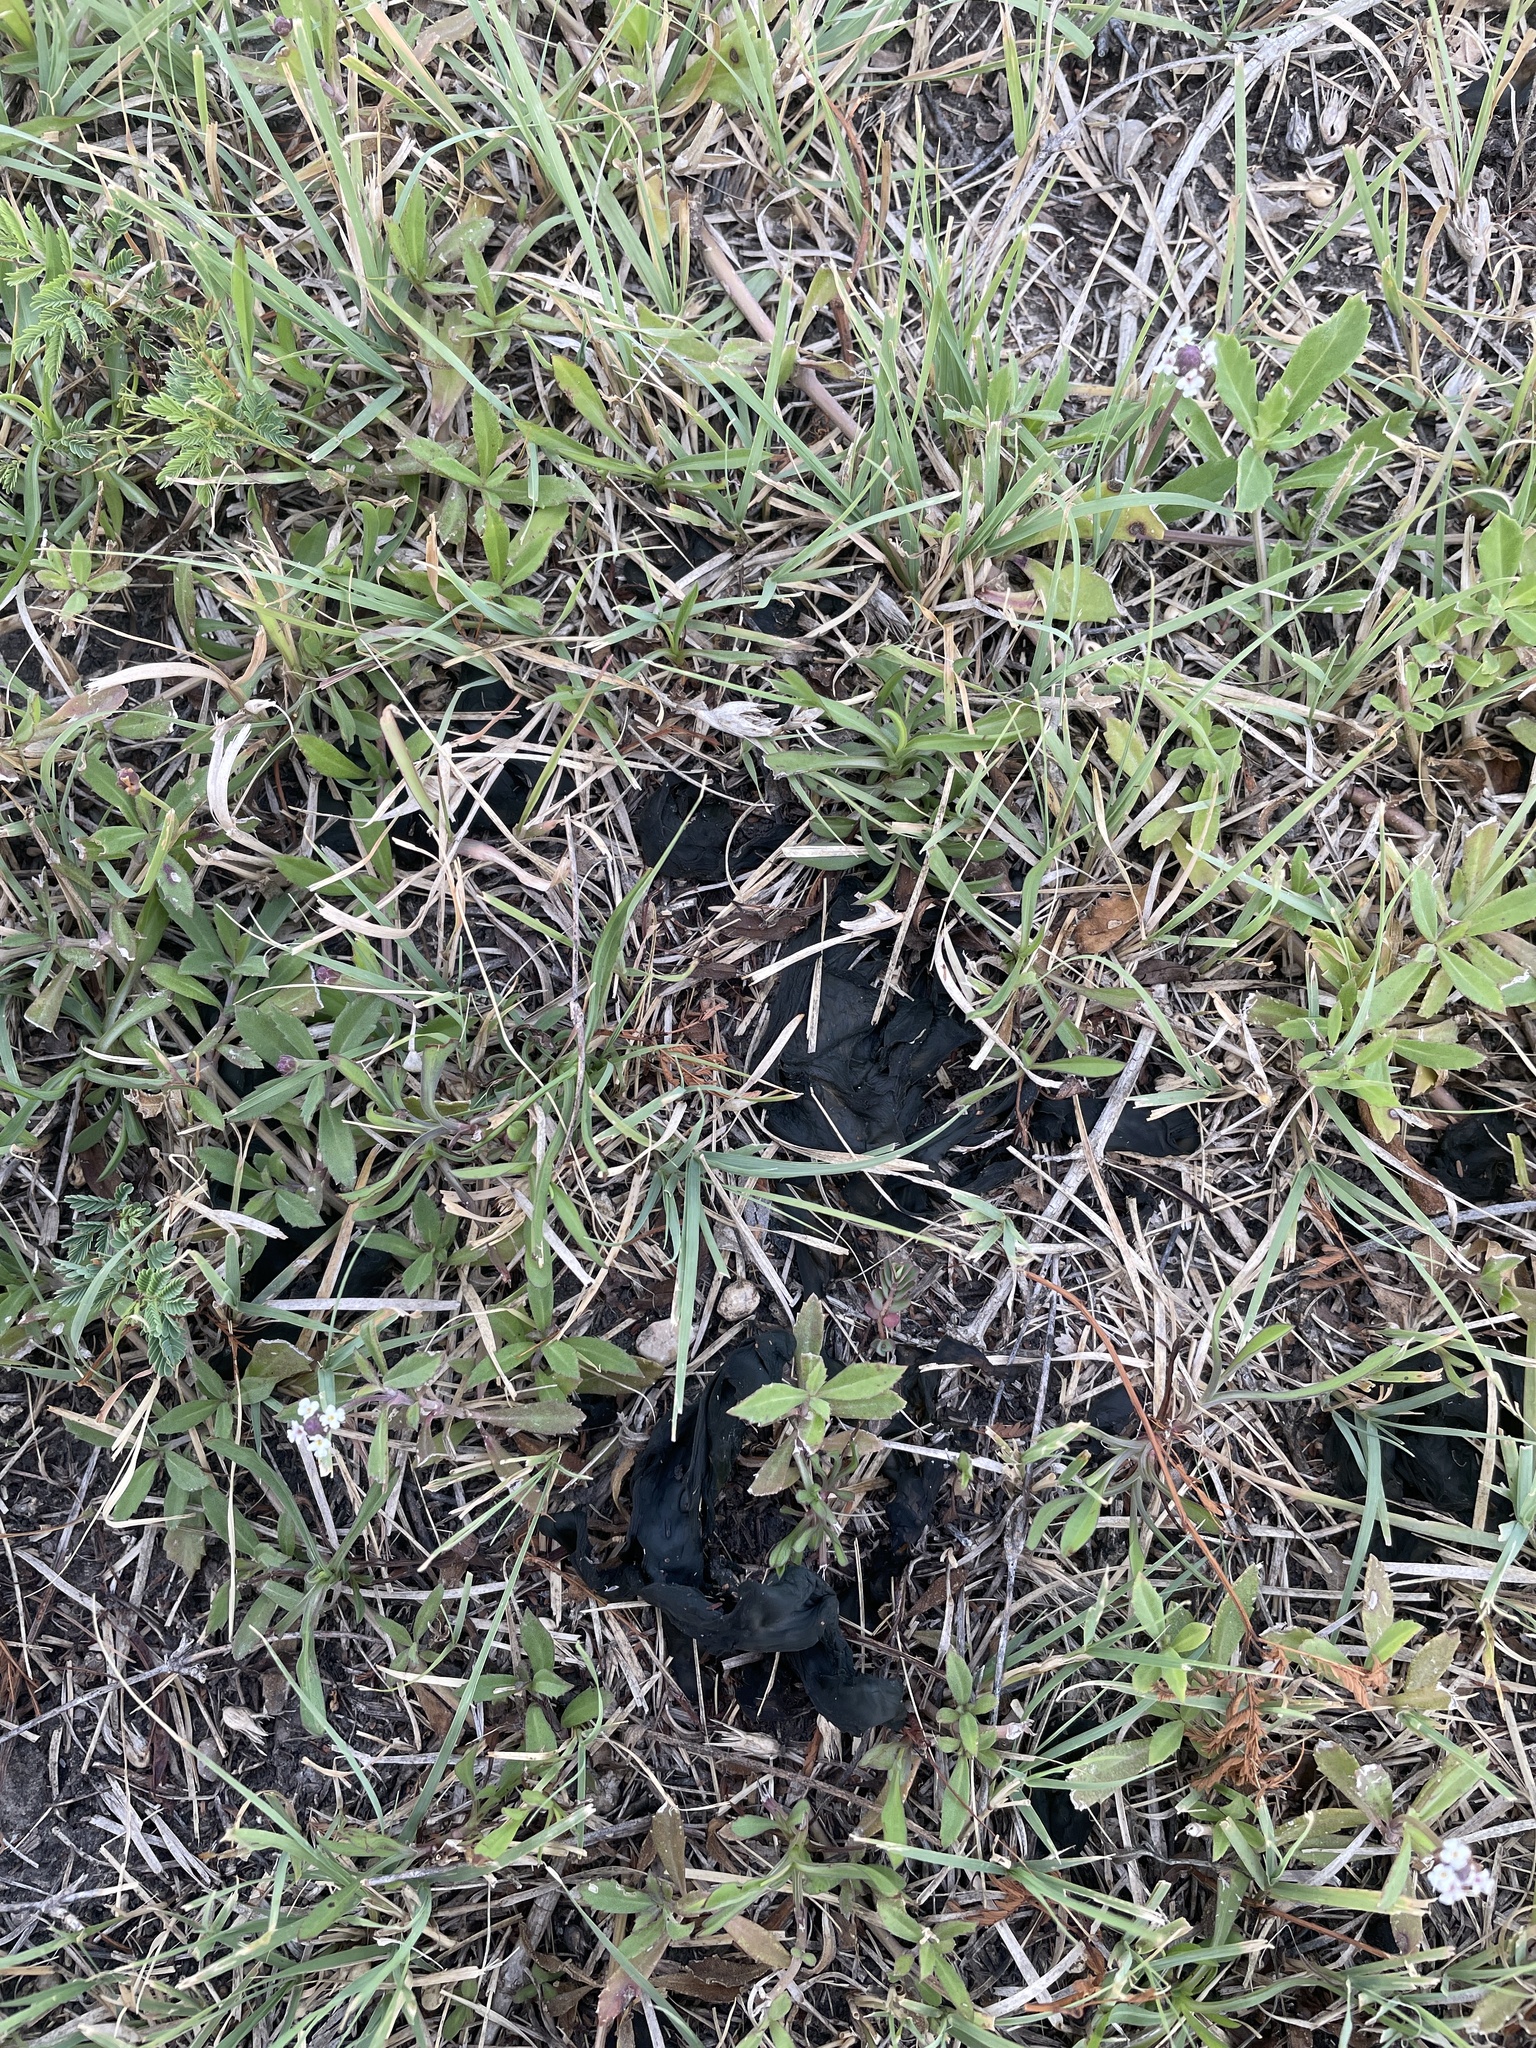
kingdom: Bacteria
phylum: Cyanobacteria
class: Cyanobacteriia
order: Cyanobacteriales
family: Nostocaceae
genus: Nostoc
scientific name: Nostoc commune
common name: Star jelly
